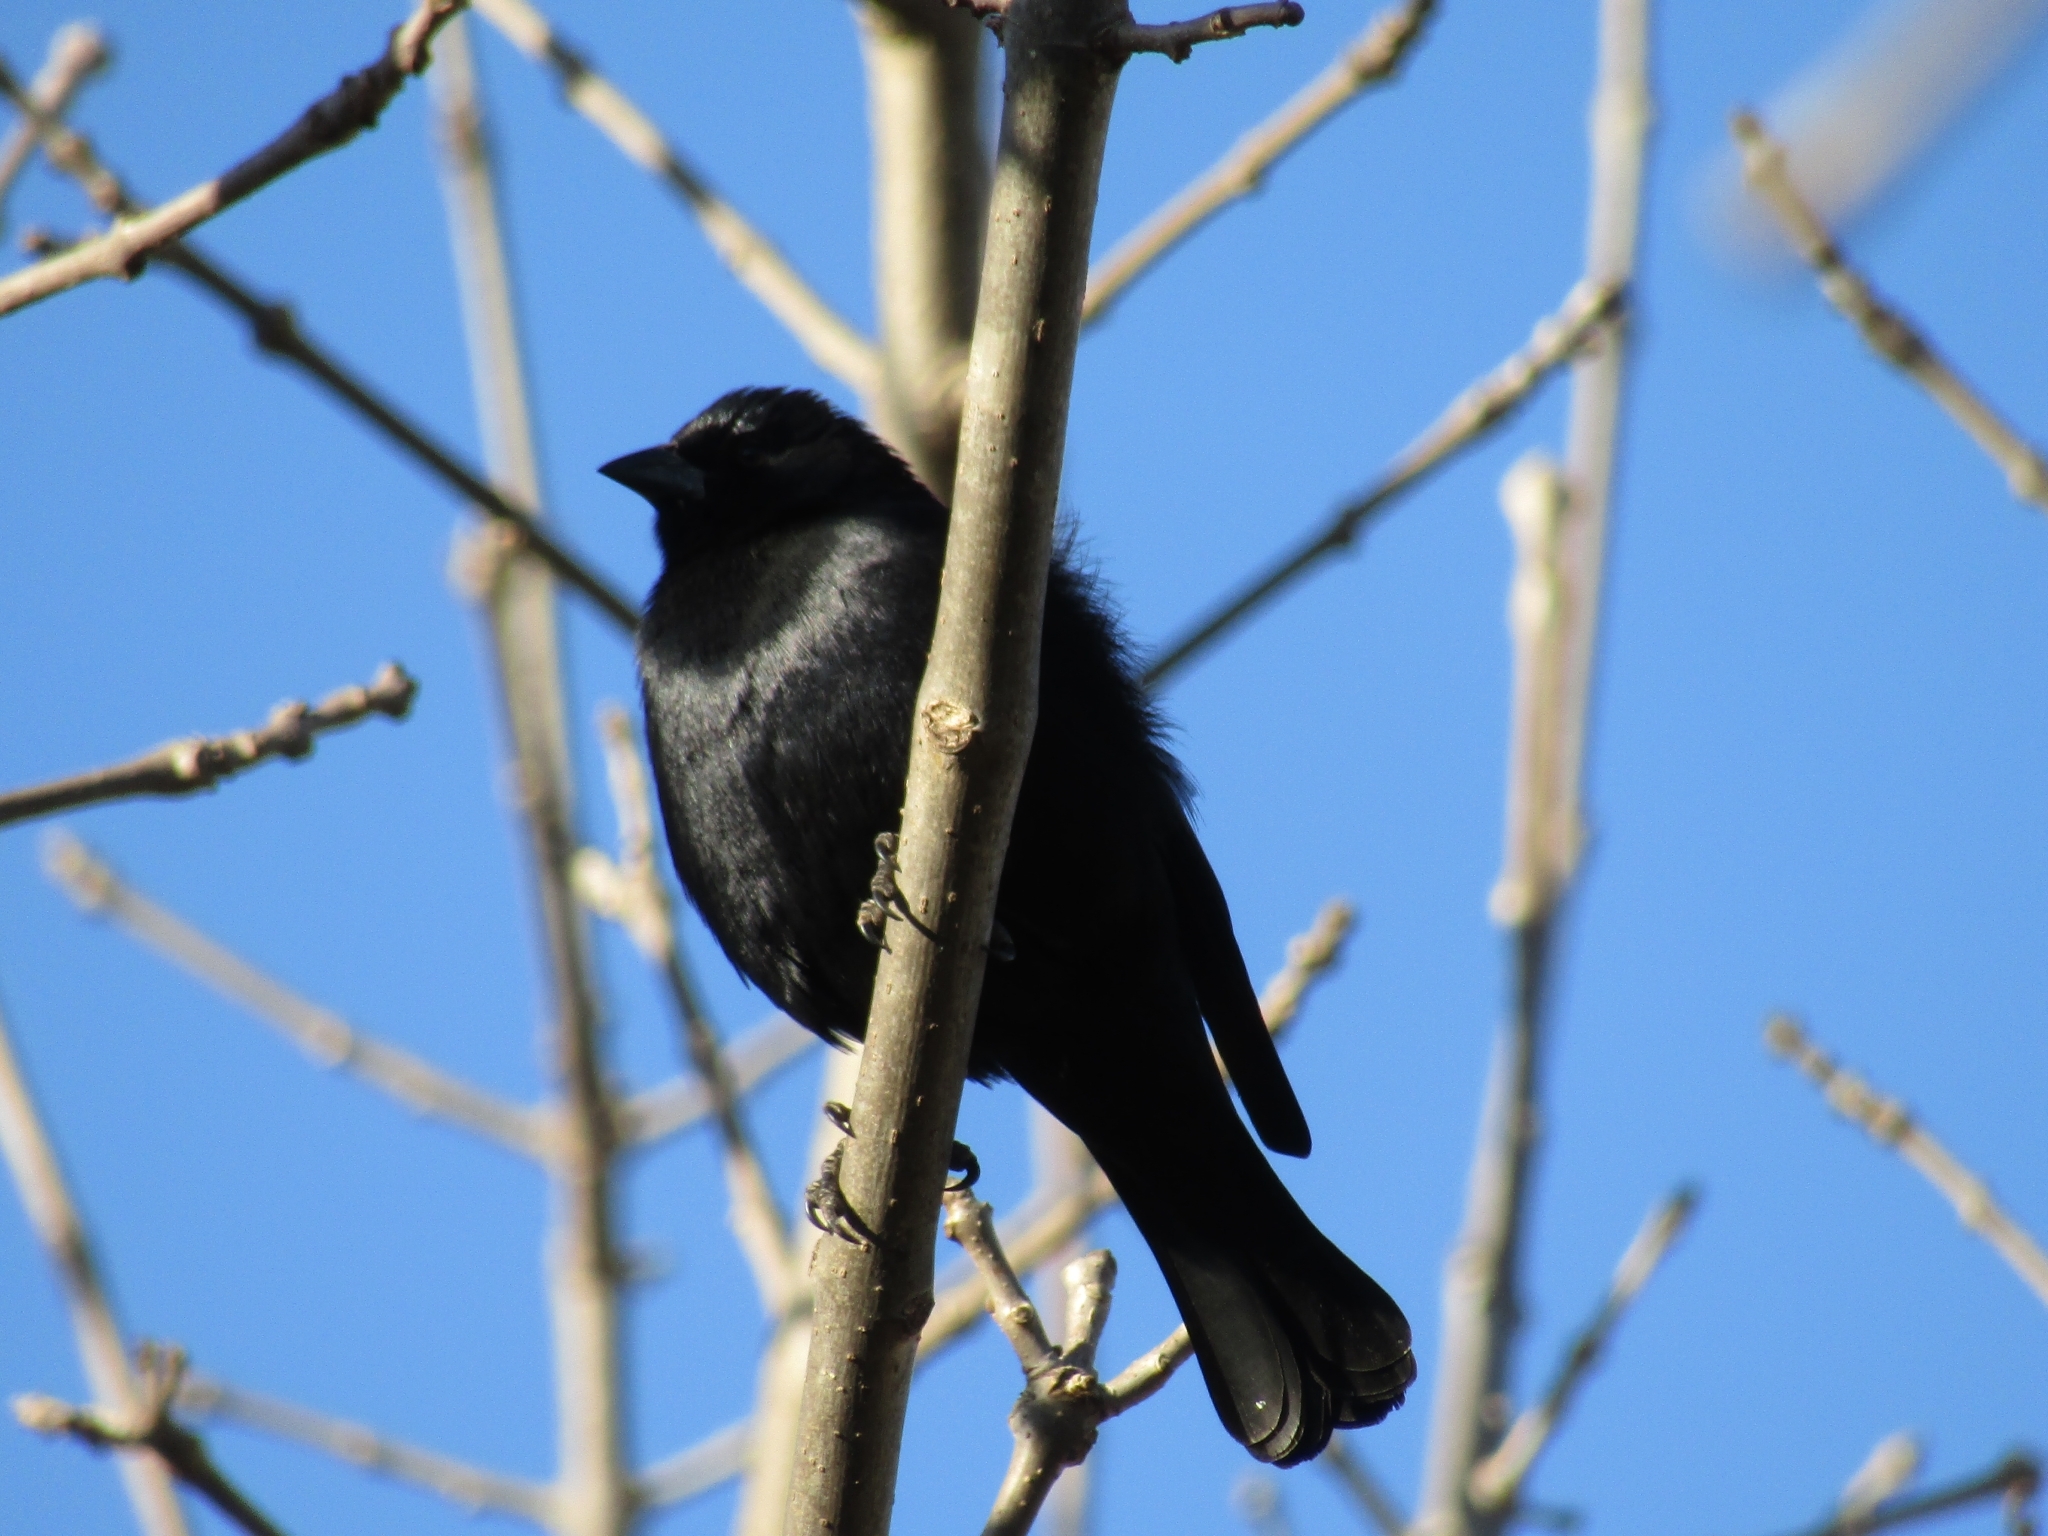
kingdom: Animalia
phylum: Chordata
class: Aves
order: Passeriformes
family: Icteridae
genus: Molothrus
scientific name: Molothrus rufoaxillaris
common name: Screaming cowbird
